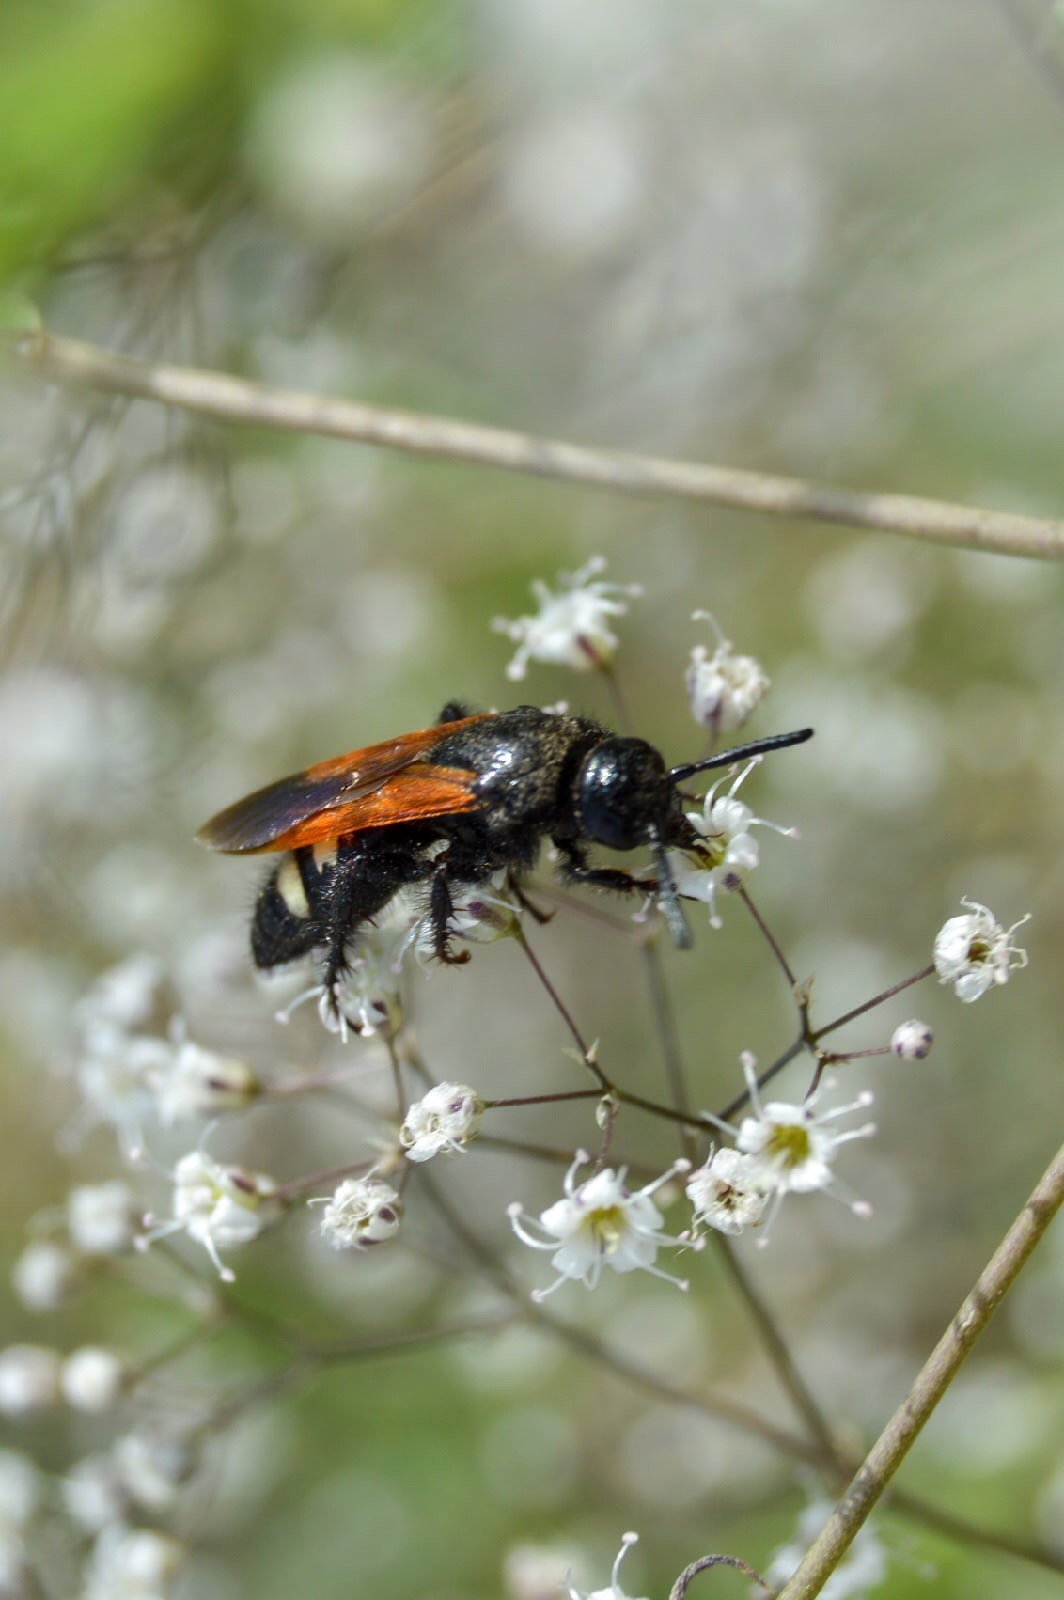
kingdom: Animalia
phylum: Arthropoda
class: Insecta
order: Hymenoptera
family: Vespidae
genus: Vespa
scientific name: Vespa sexmaculata
